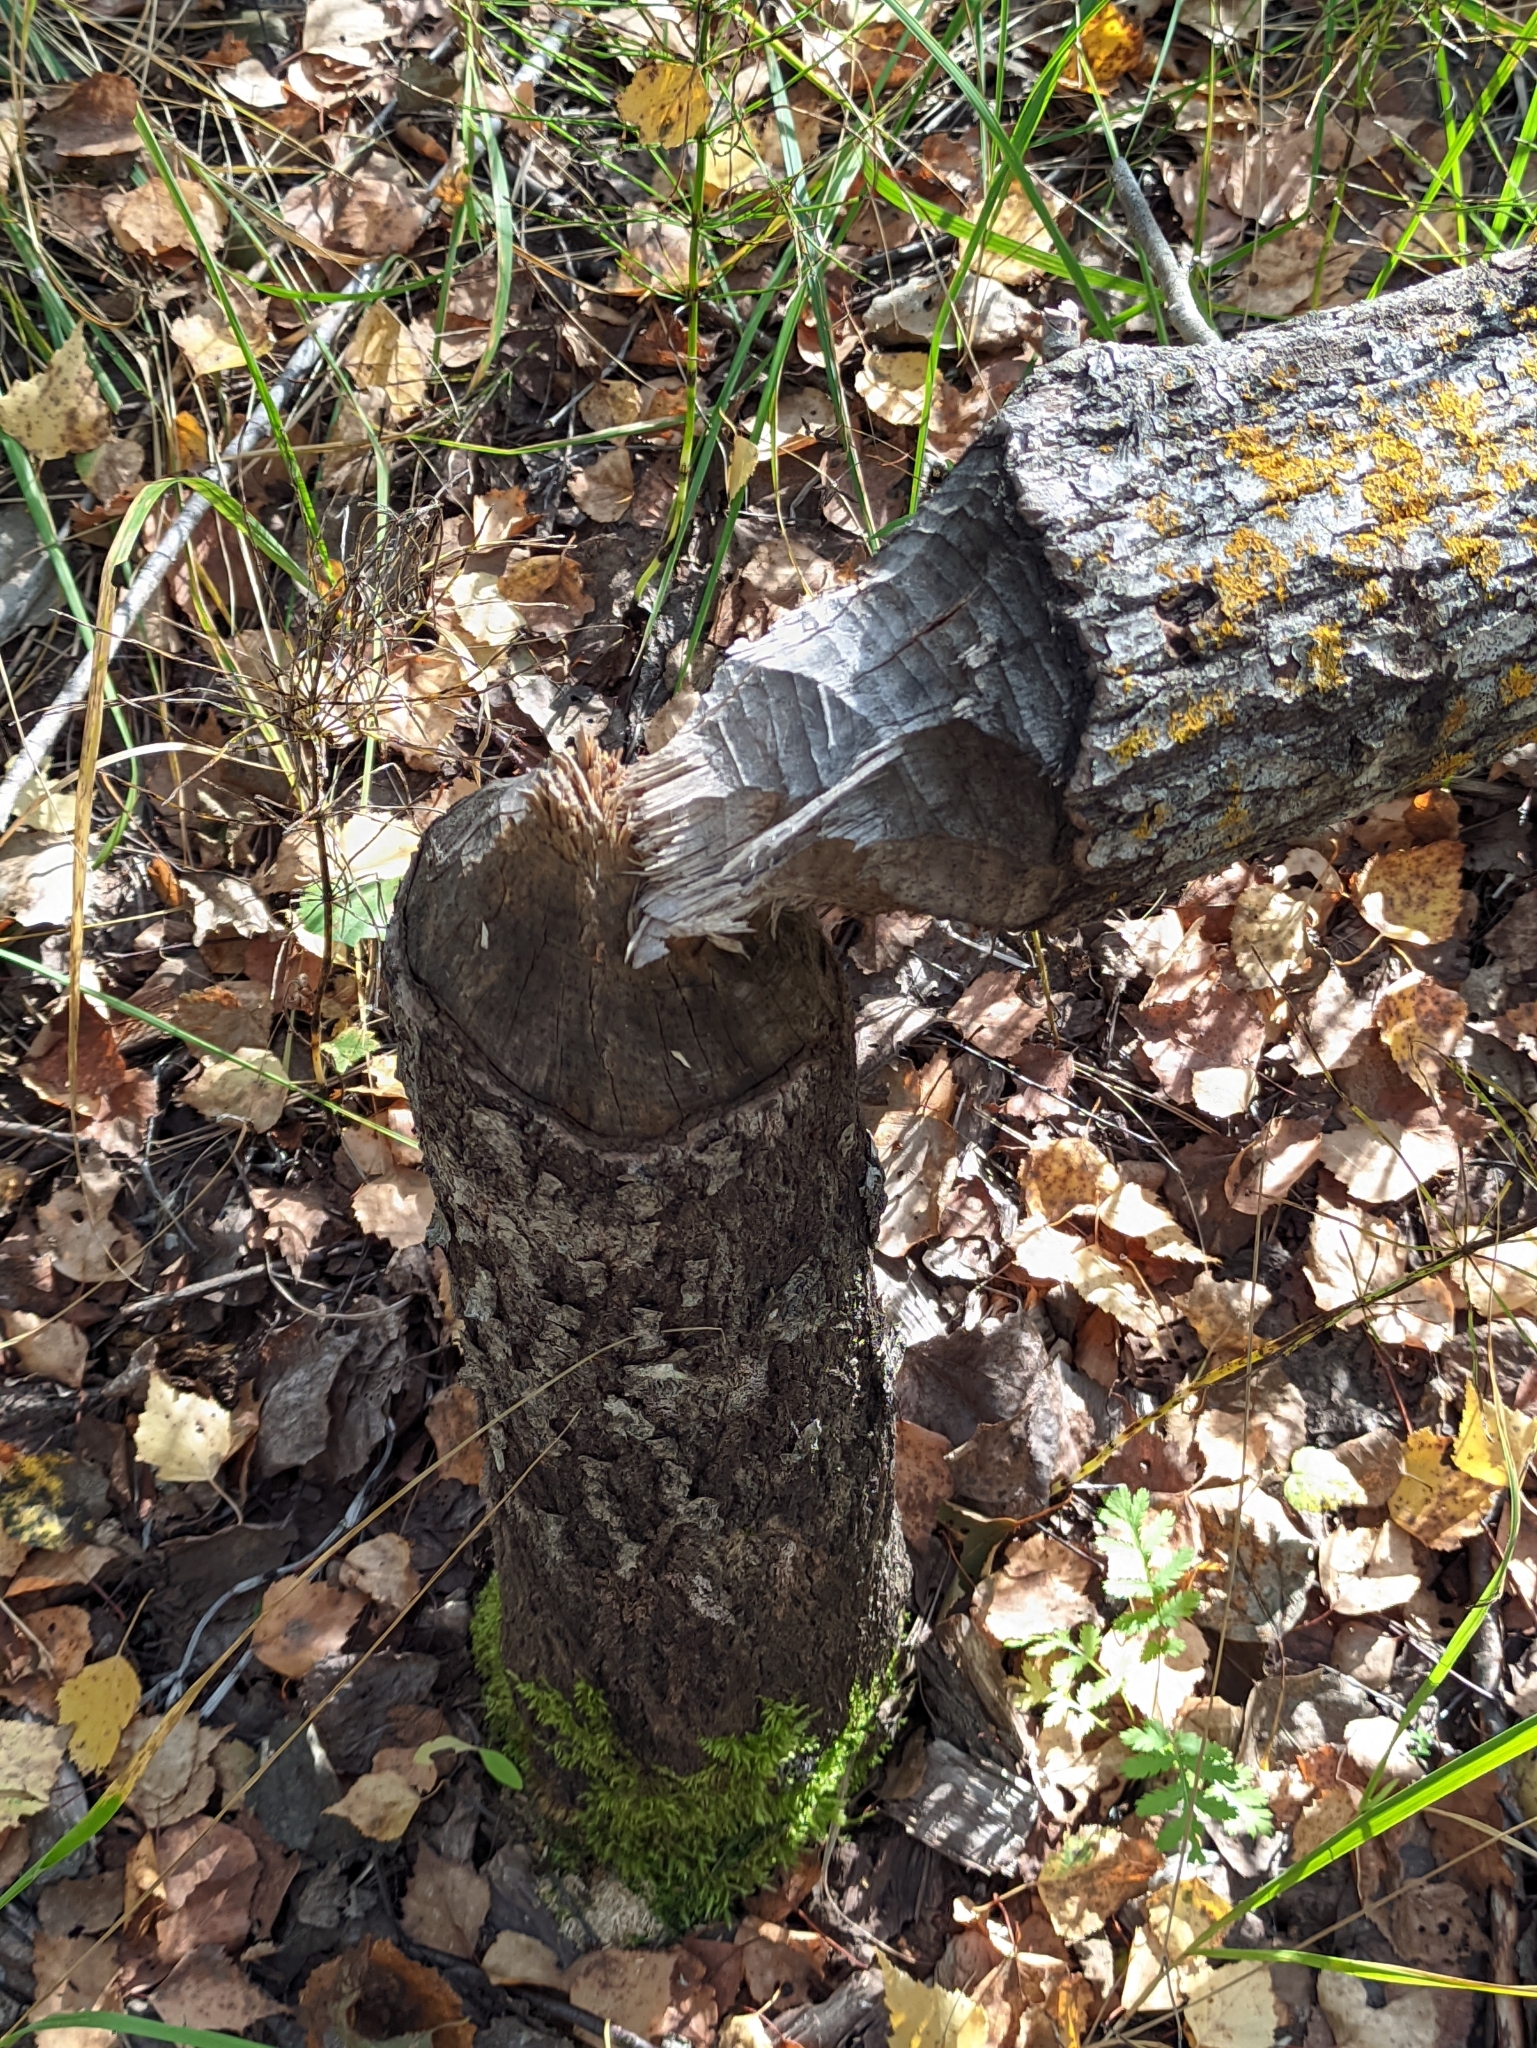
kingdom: Animalia
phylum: Chordata
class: Mammalia
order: Rodentia
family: Castoridae
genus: Castor
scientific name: Castor fiber
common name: Eurasian beaver
